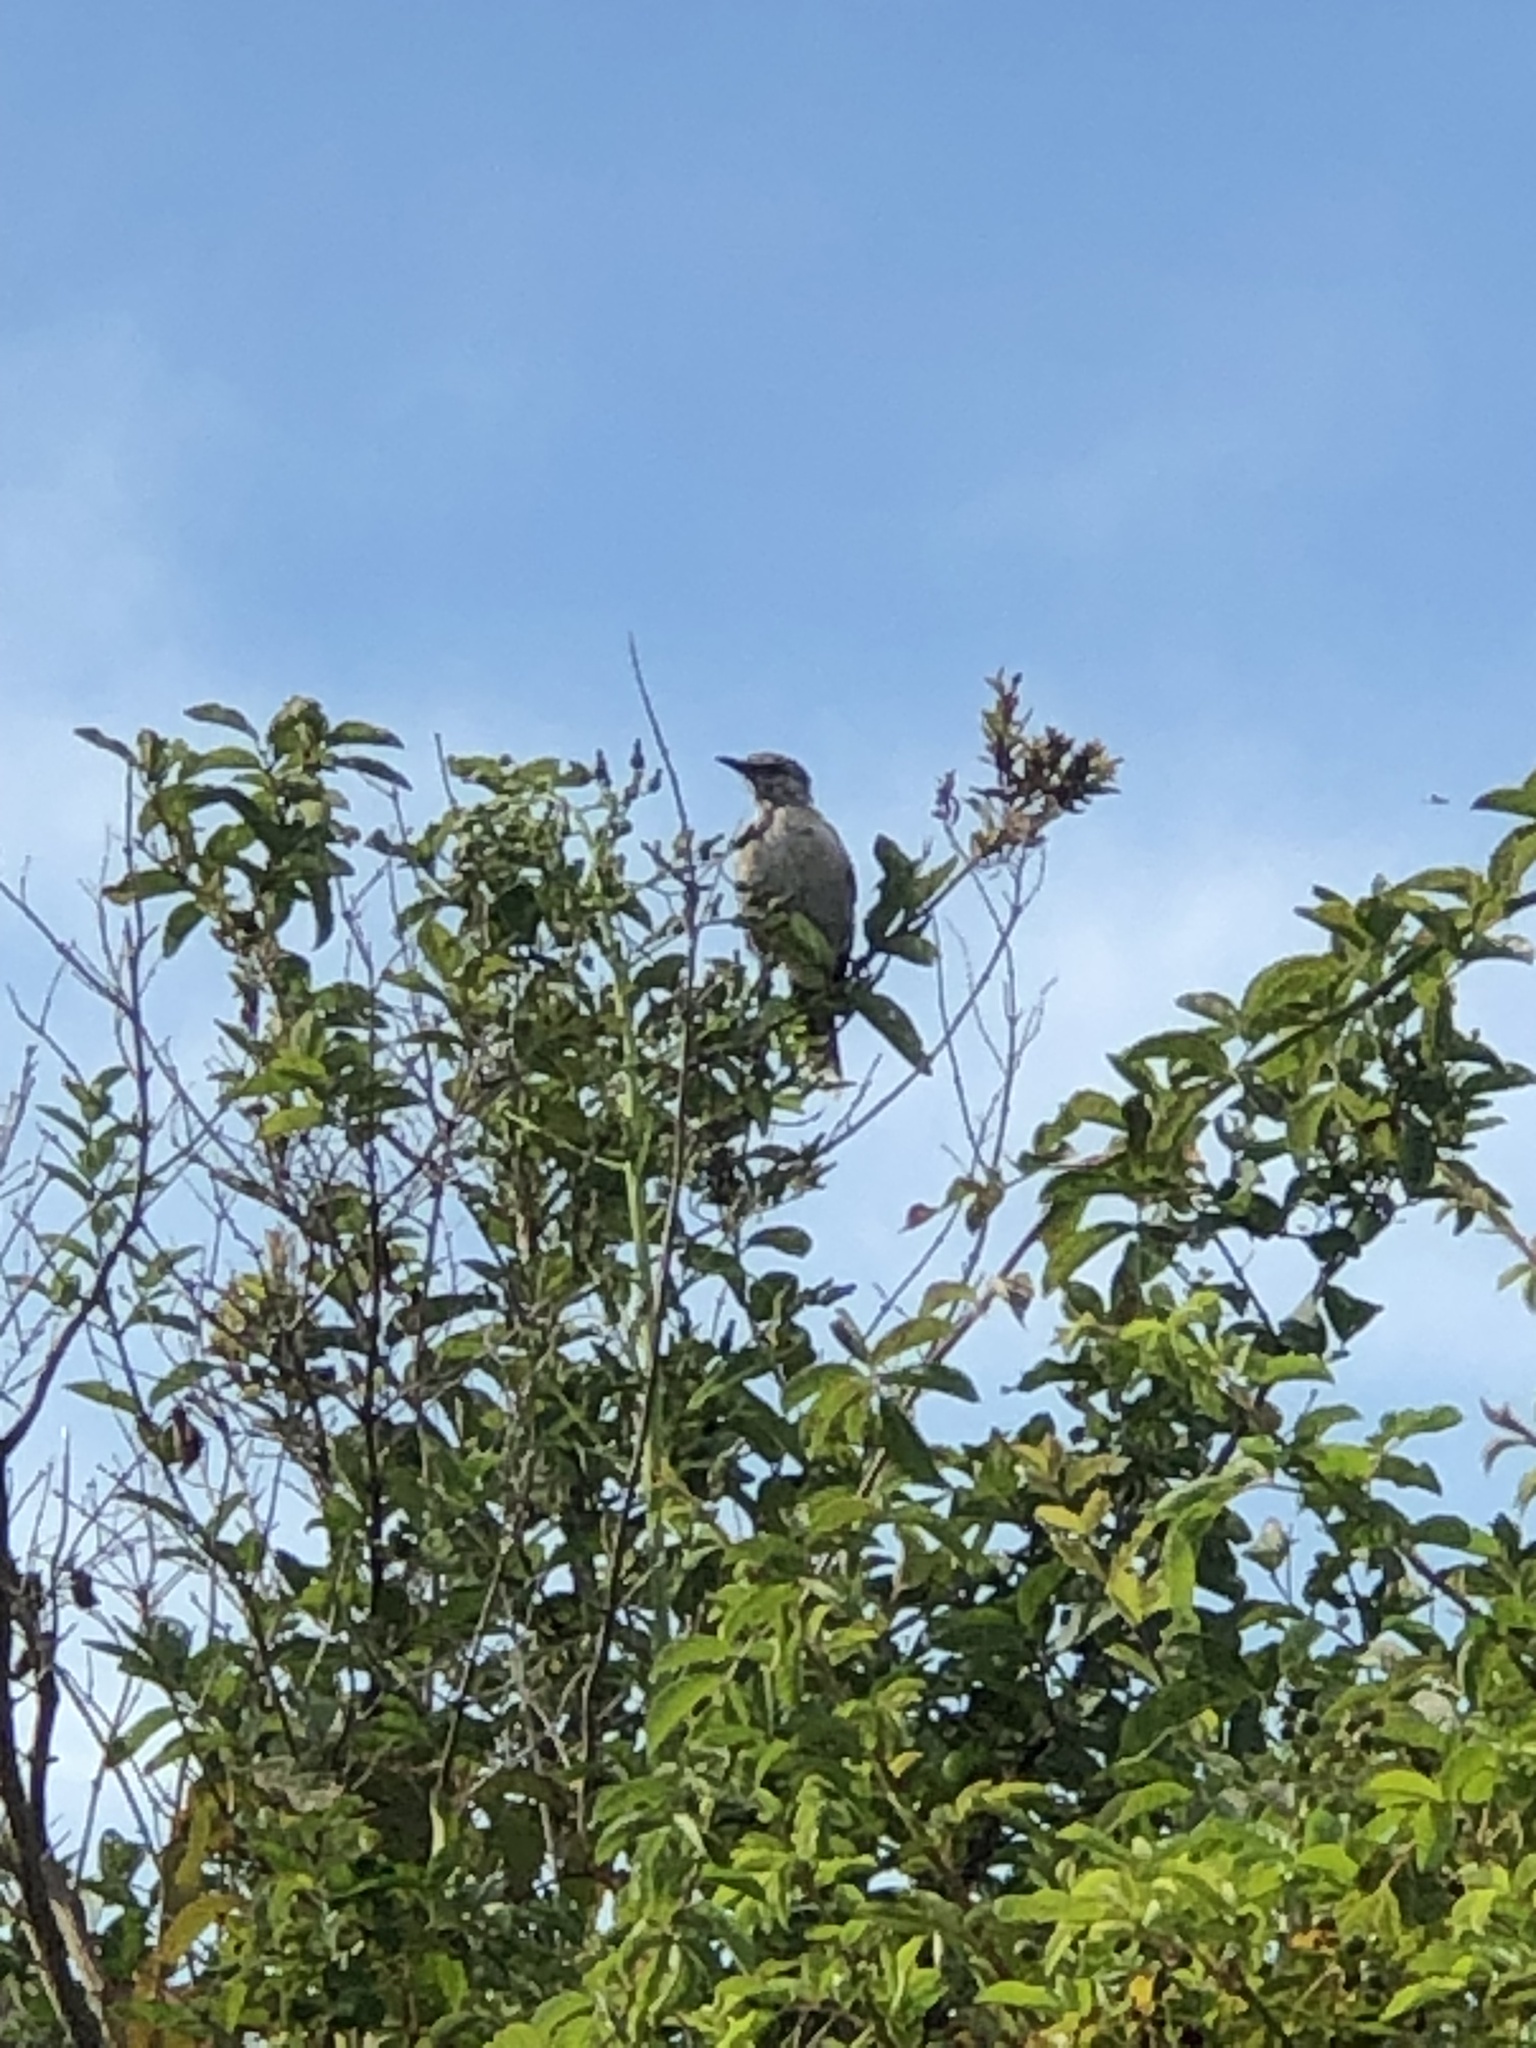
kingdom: Animalia
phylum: Chordata
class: Aves
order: Passeriformes
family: Mimidae
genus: Mimus
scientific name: Mimus polyglottos
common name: Northern mockingbird
